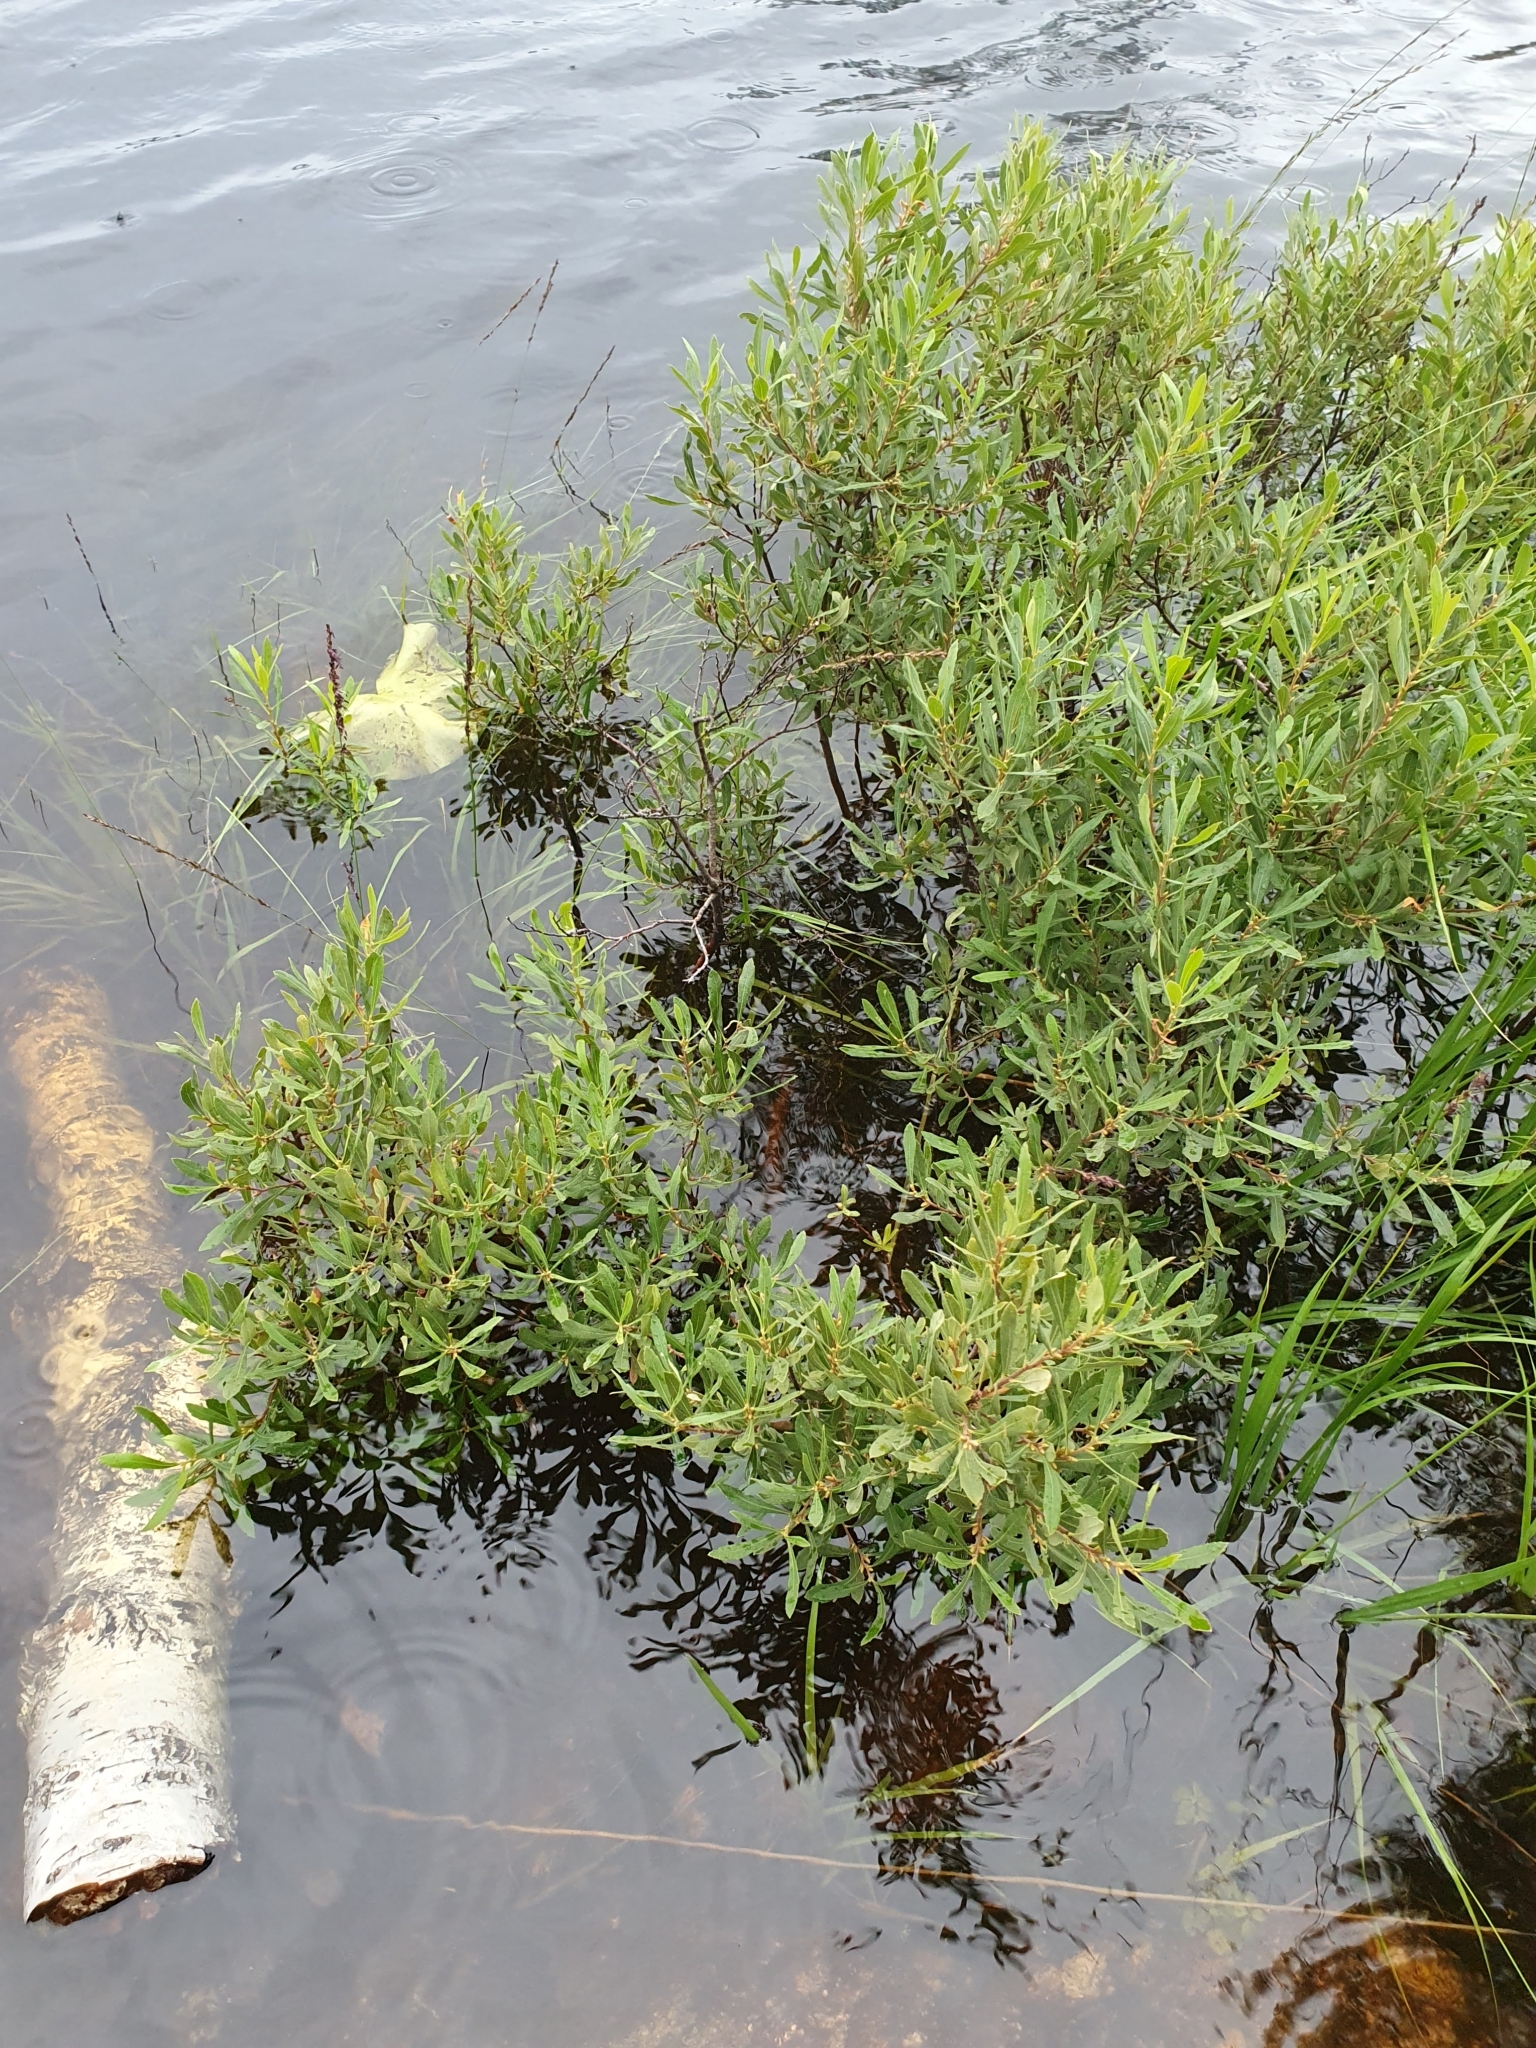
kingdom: Plantae
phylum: Tracheophyta
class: Magnoliopsida
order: Fagales
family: Myricaceae
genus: Myrica
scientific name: Myrica gale
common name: Sweet gale
